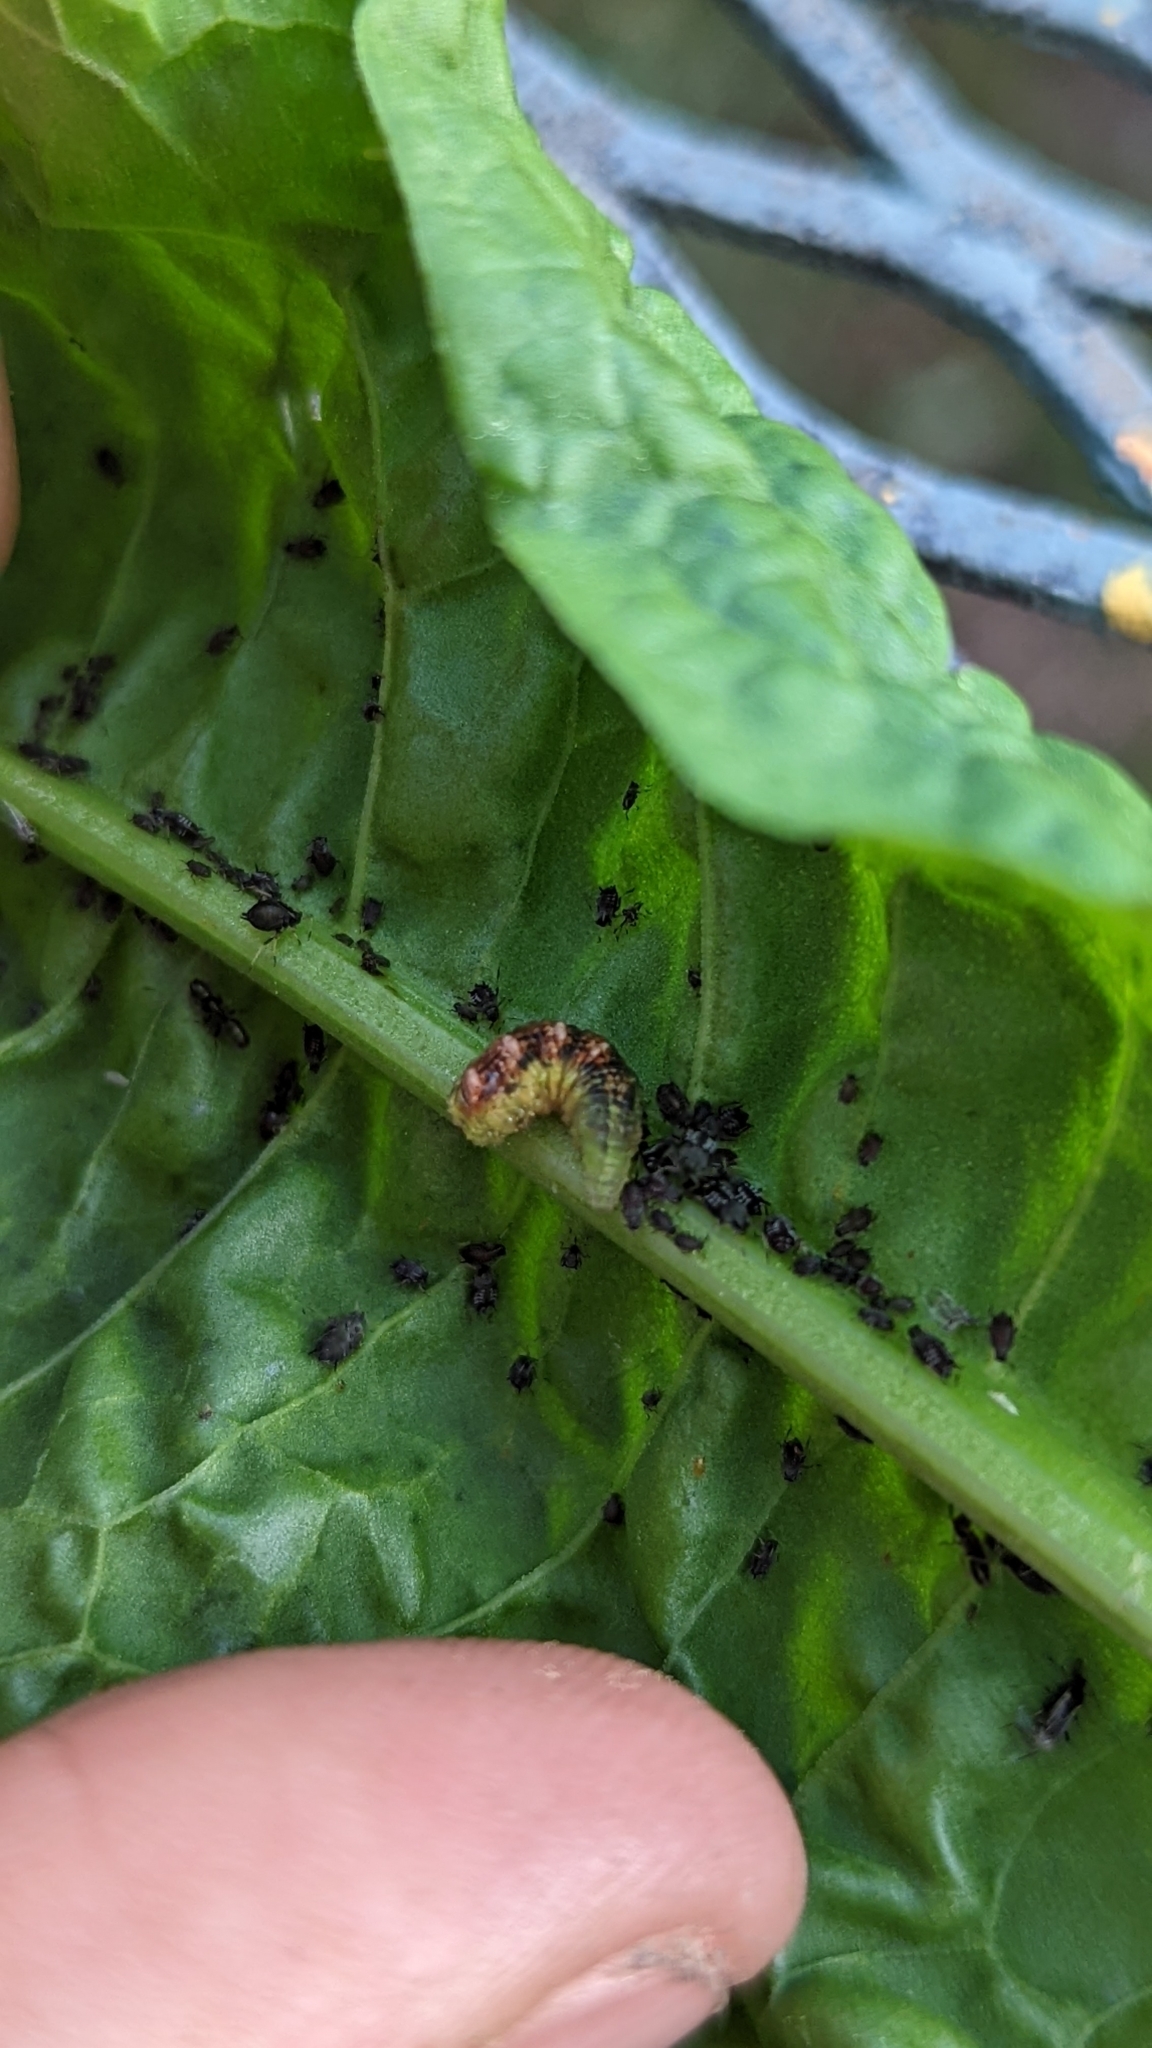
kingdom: Animalia
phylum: Arthropoda
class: Insecta
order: Diptera
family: Syrphidae
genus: Eupeodes
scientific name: Eupeodes pomus
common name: Short-tailed aphideater
